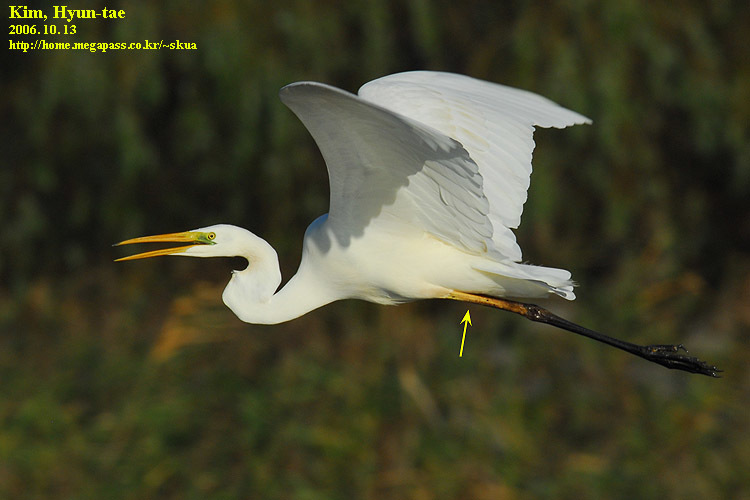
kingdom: Animalia
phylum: Chordata
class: Aves
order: Pelecaniformes
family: Ardeidae
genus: Ardea
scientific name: Ardea alba
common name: Great egret
